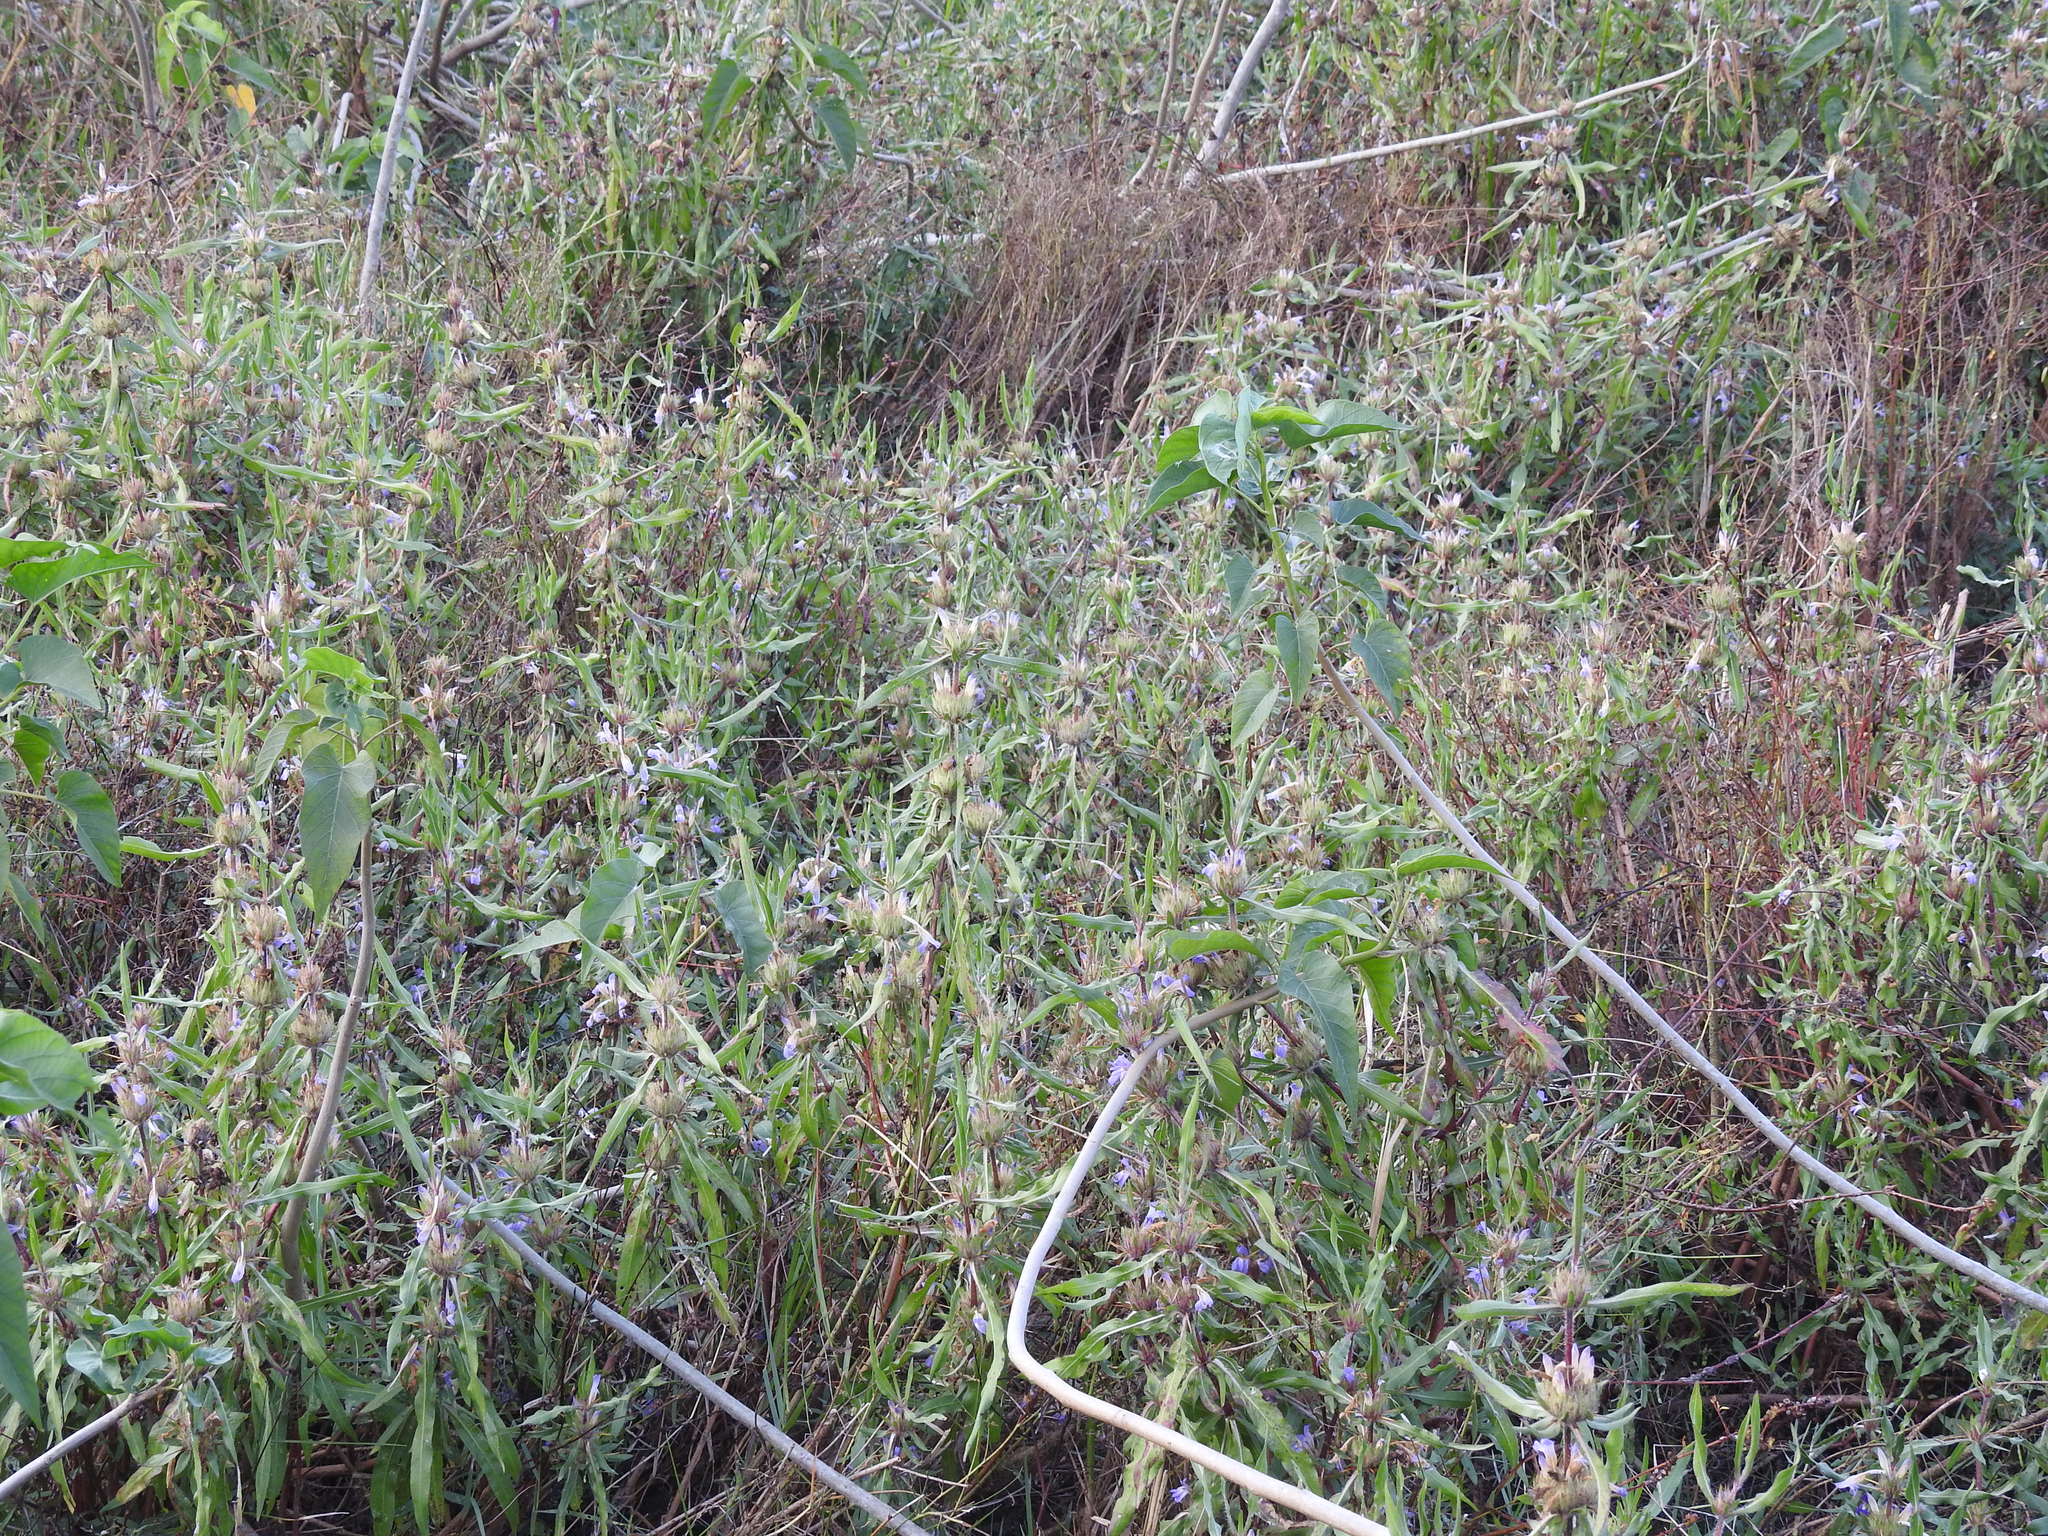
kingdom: Plantae
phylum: Tracheophyta
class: Magnoliopsida
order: Lamiales
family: Acanthaceae
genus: Hygrophila
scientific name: Hygrophila auriculata
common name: Hygrophila
